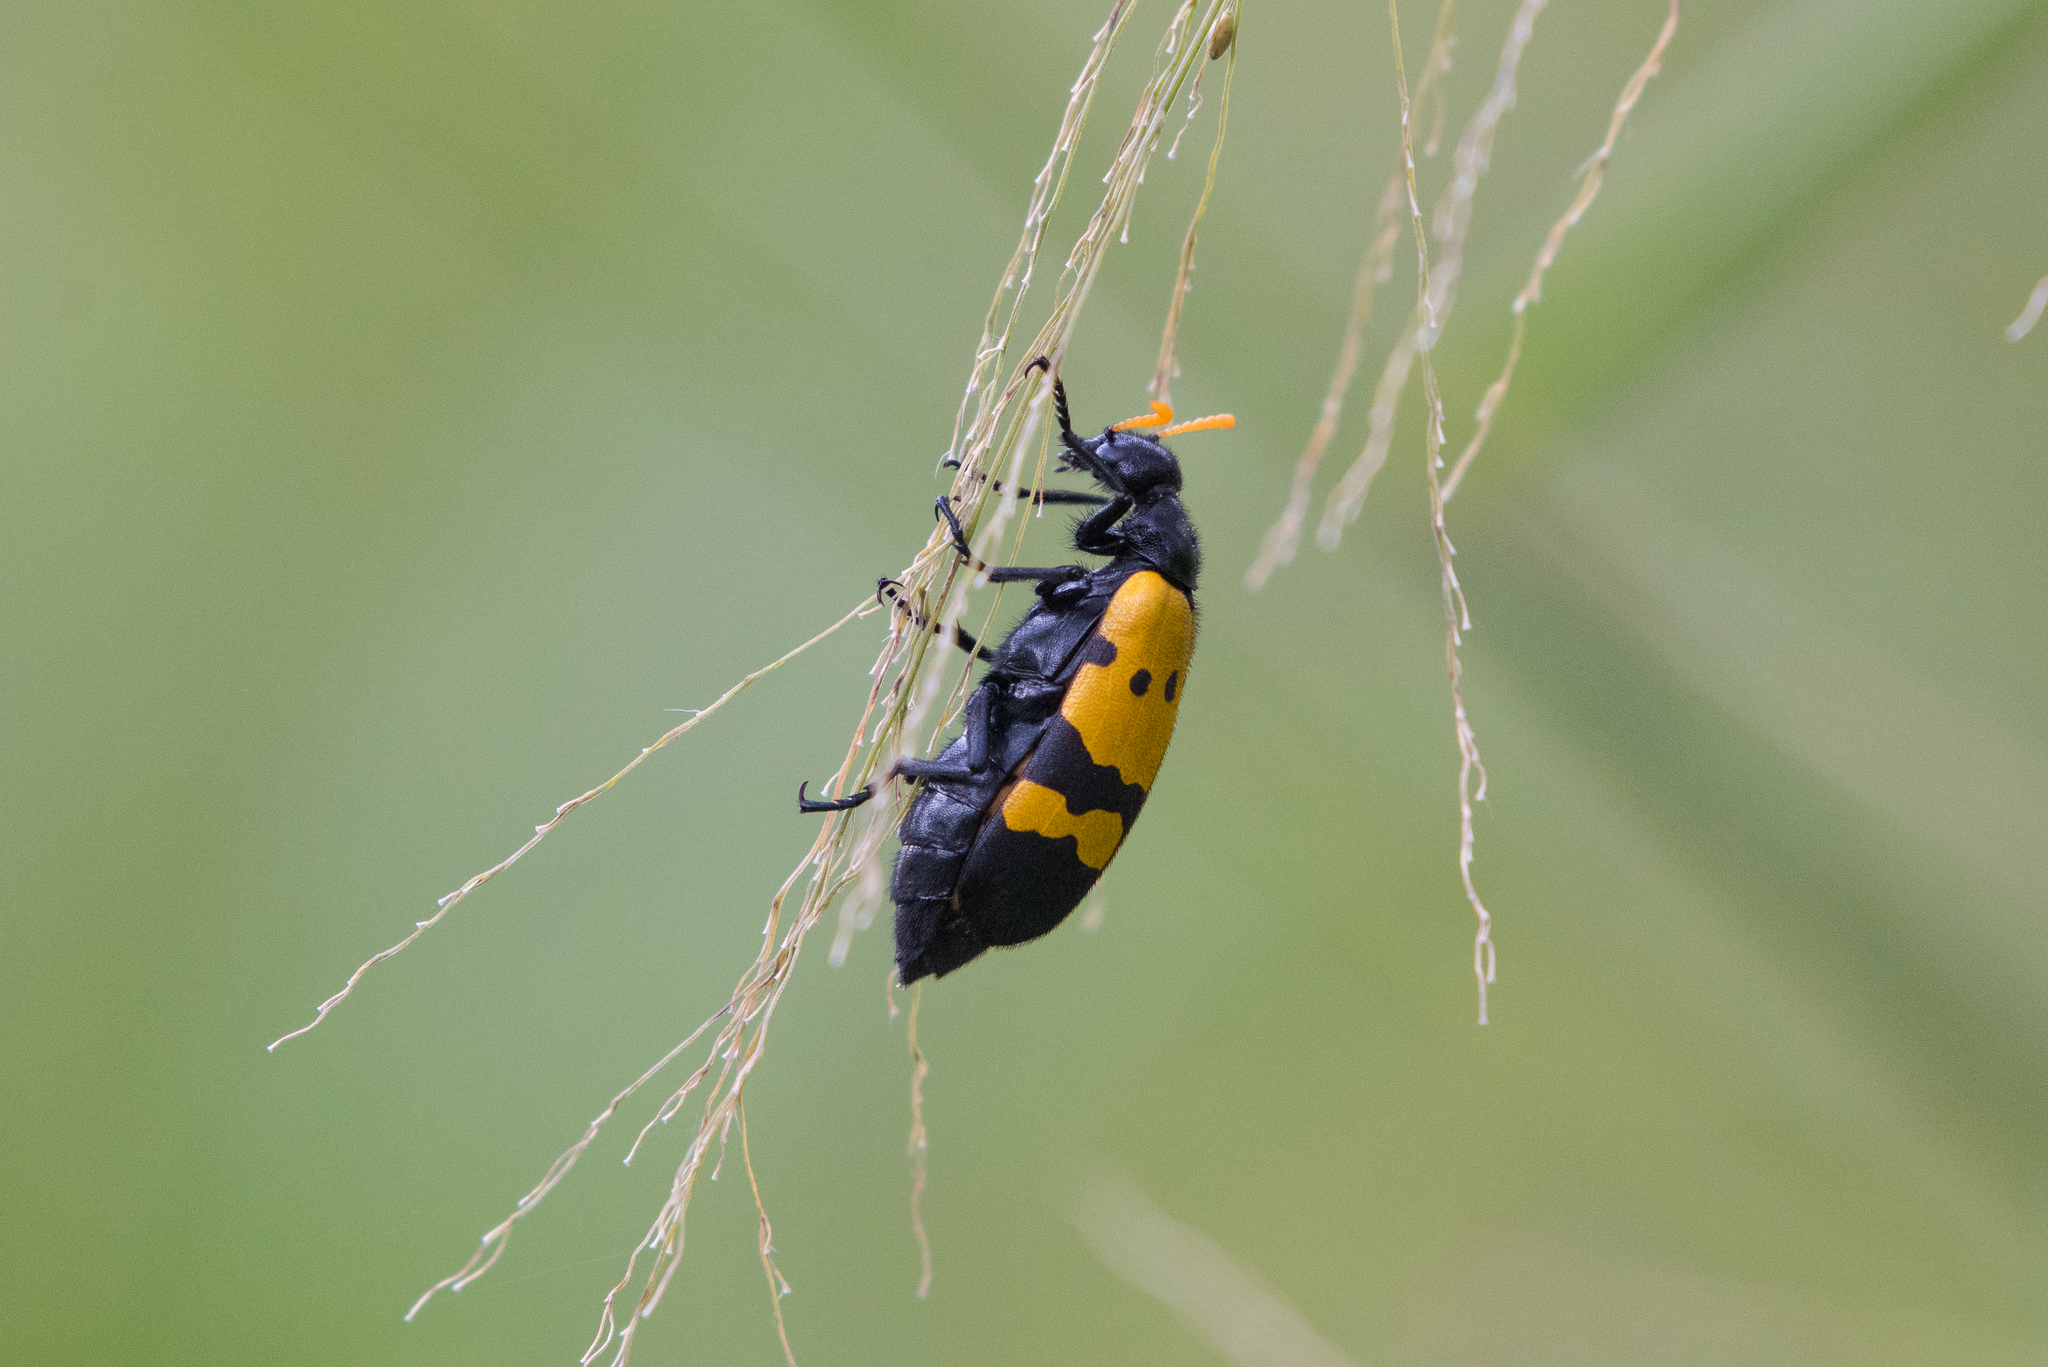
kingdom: Animalia
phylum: Arthropoda
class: Insecta
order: Coleoptera
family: Meloidae
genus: Hycleus
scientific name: Hycleus tristigmus
